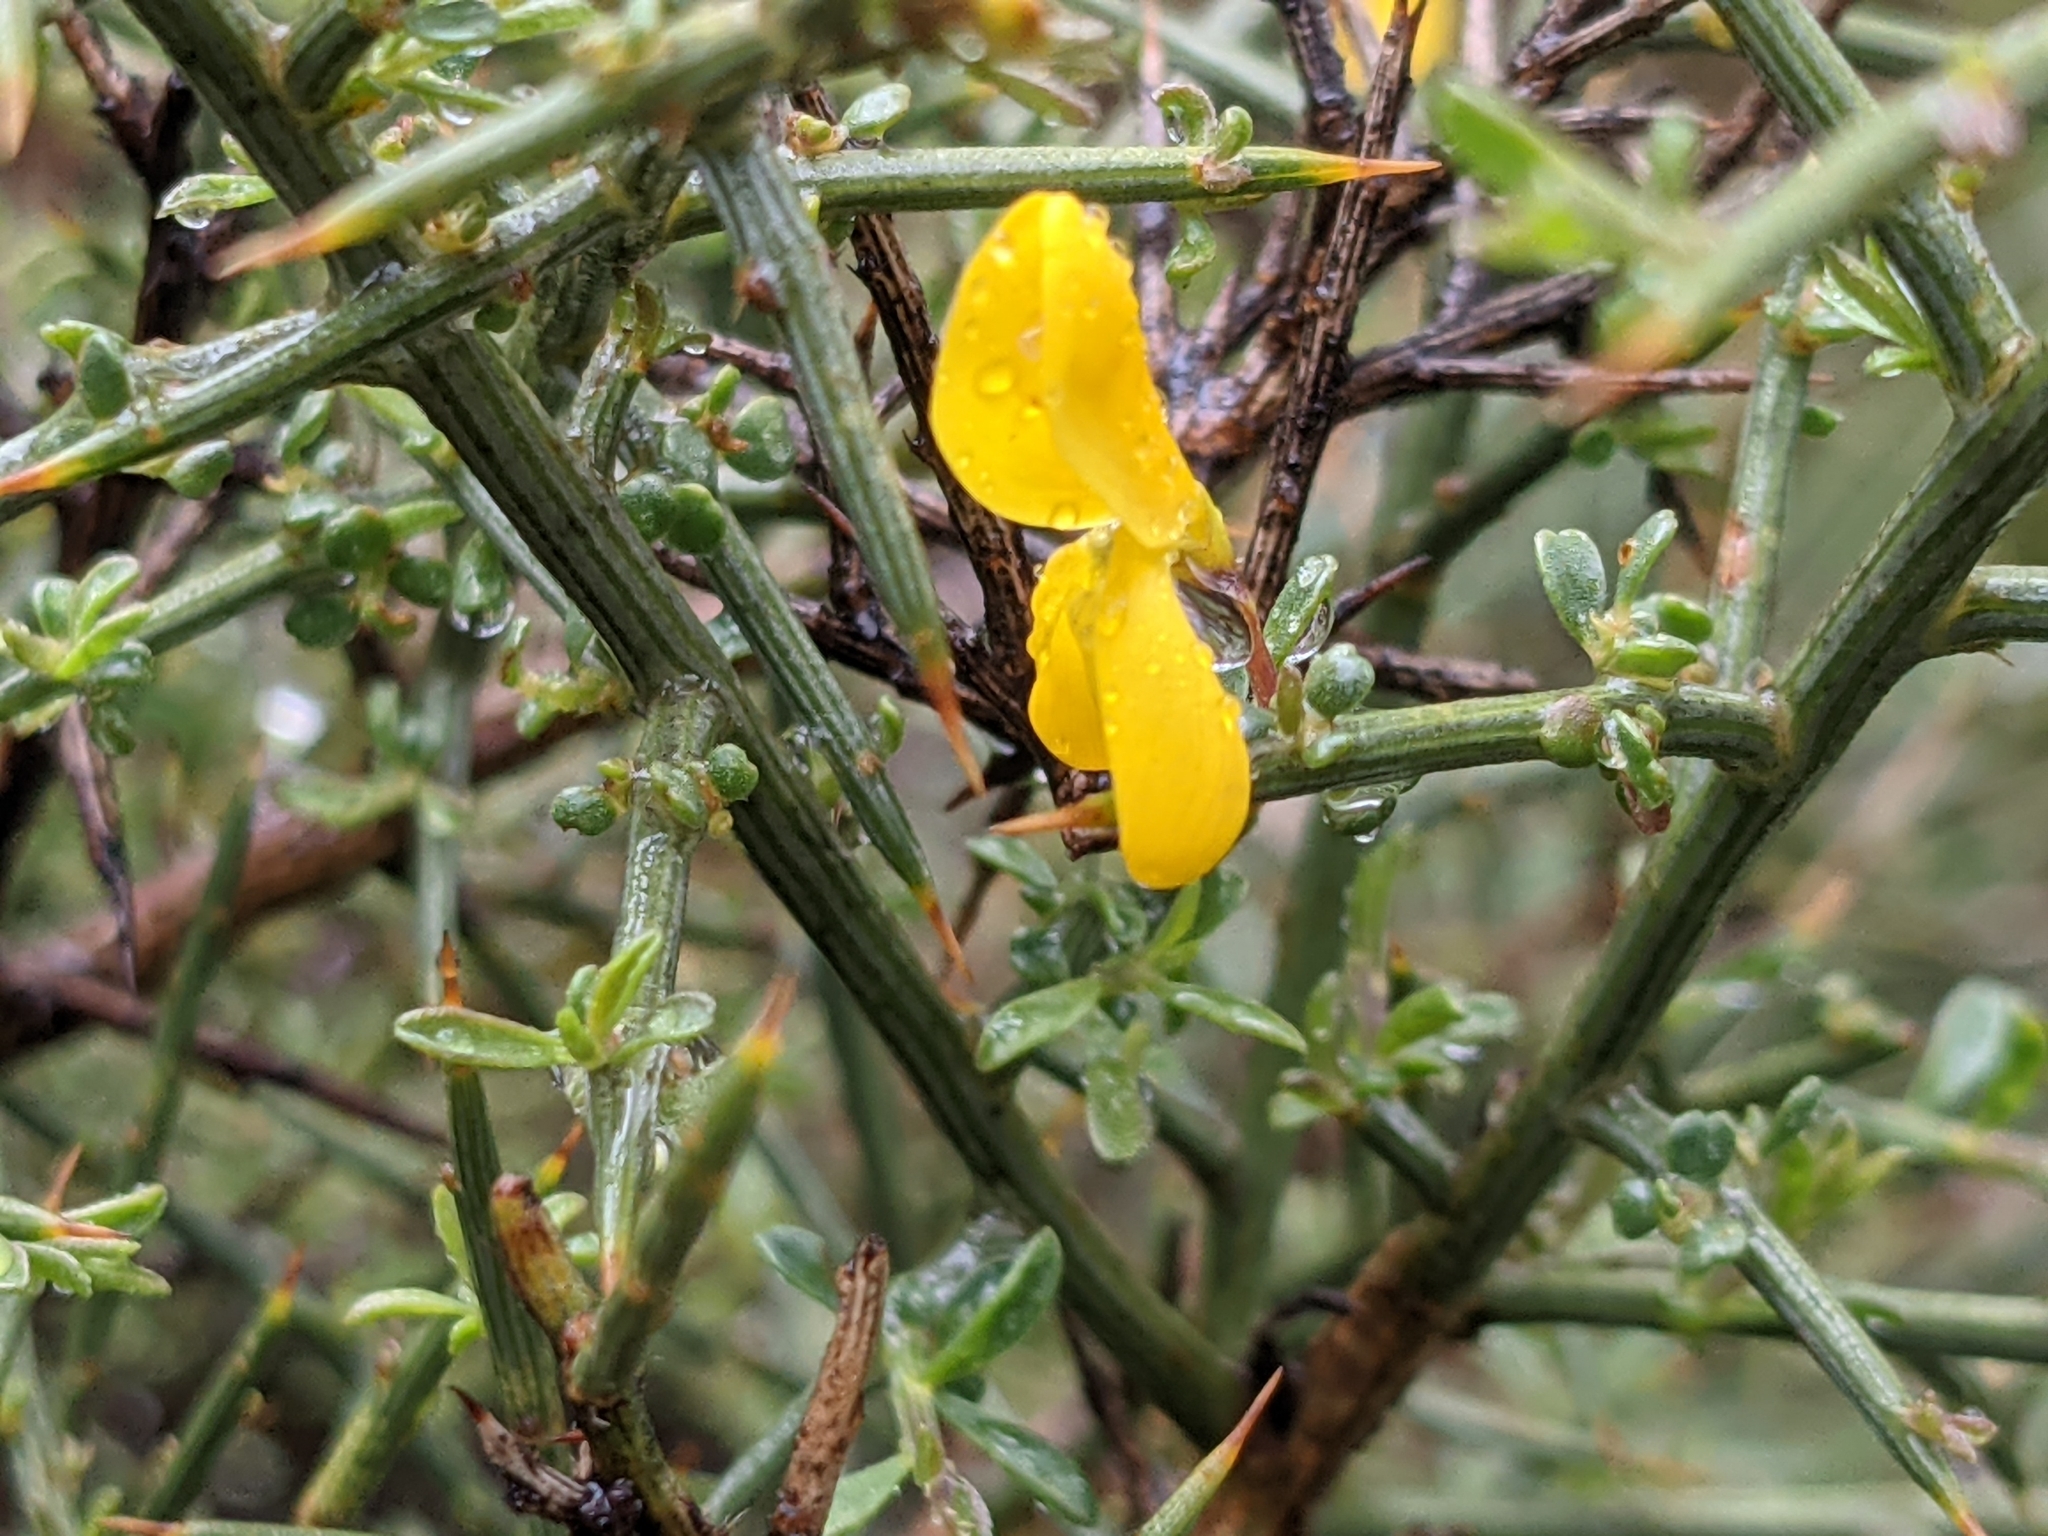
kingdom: Plantae
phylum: Tracheophyta
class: Magnoliopsida
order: Fabales
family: Fabaceae
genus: Genista
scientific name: Genista scorpius
